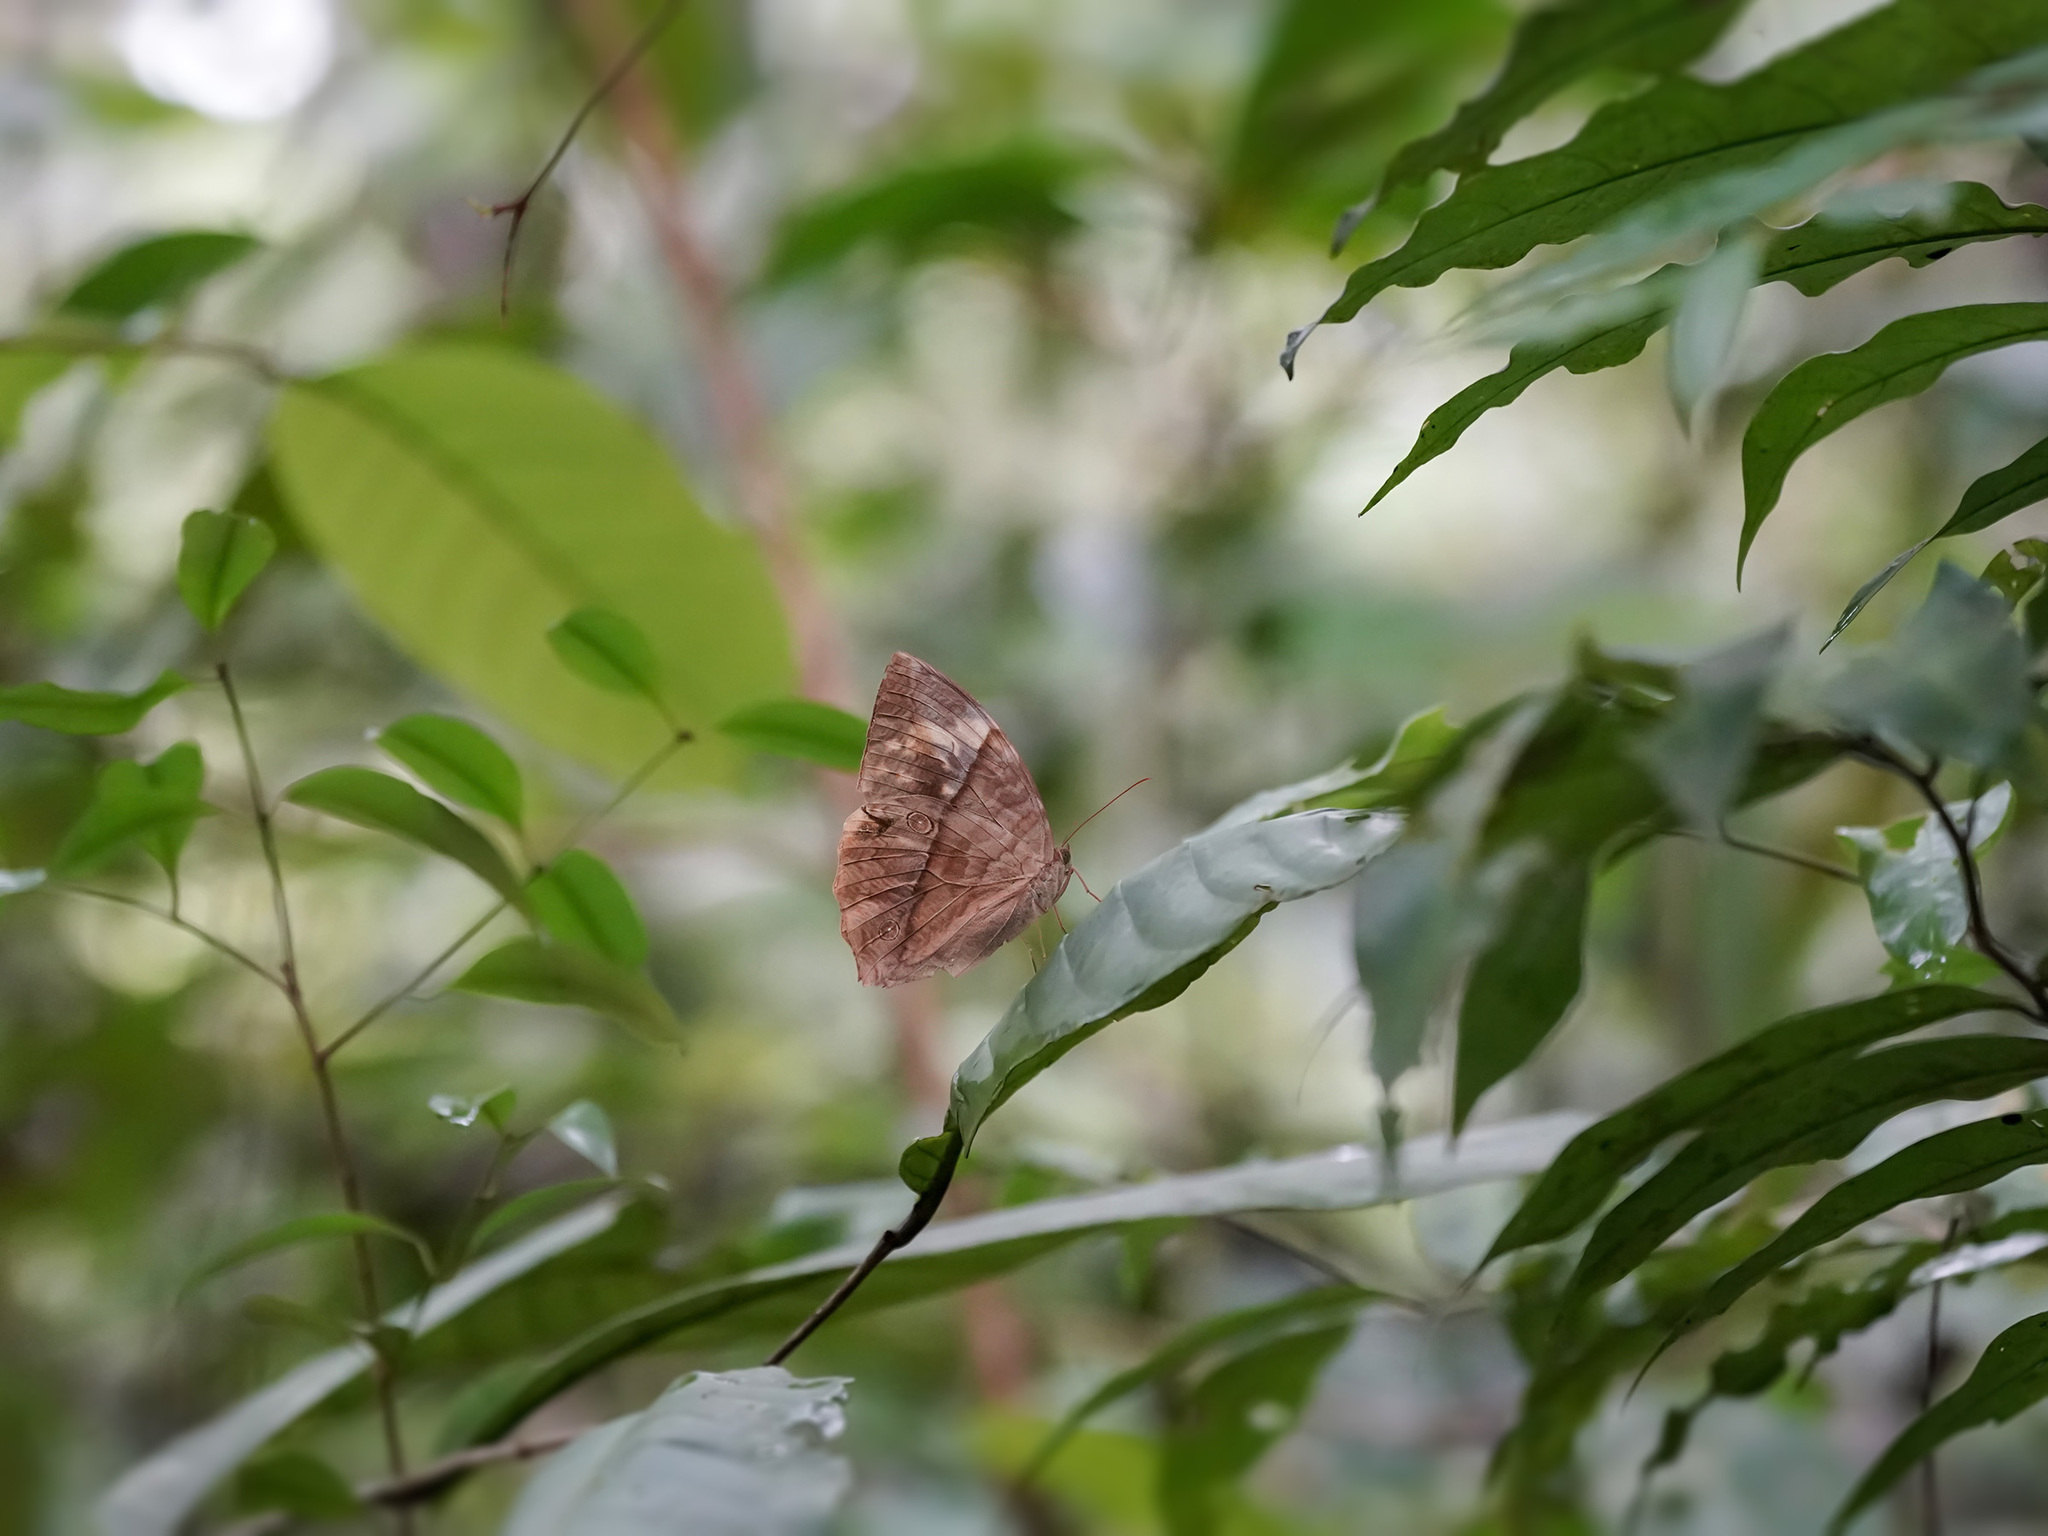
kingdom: Animalia
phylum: Arthropoda
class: Insecta
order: Lepidoptera
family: Nymphalidae
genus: Zeuxidia
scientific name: Zeuxidia amethysta
